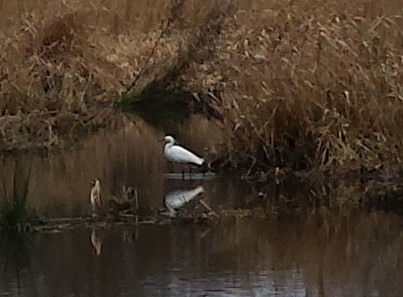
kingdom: Animalia
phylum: Chordata
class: Aves
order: Pelecaniformes
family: Ardeidae
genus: Egretta
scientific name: Egretta garzetta
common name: Little egret
